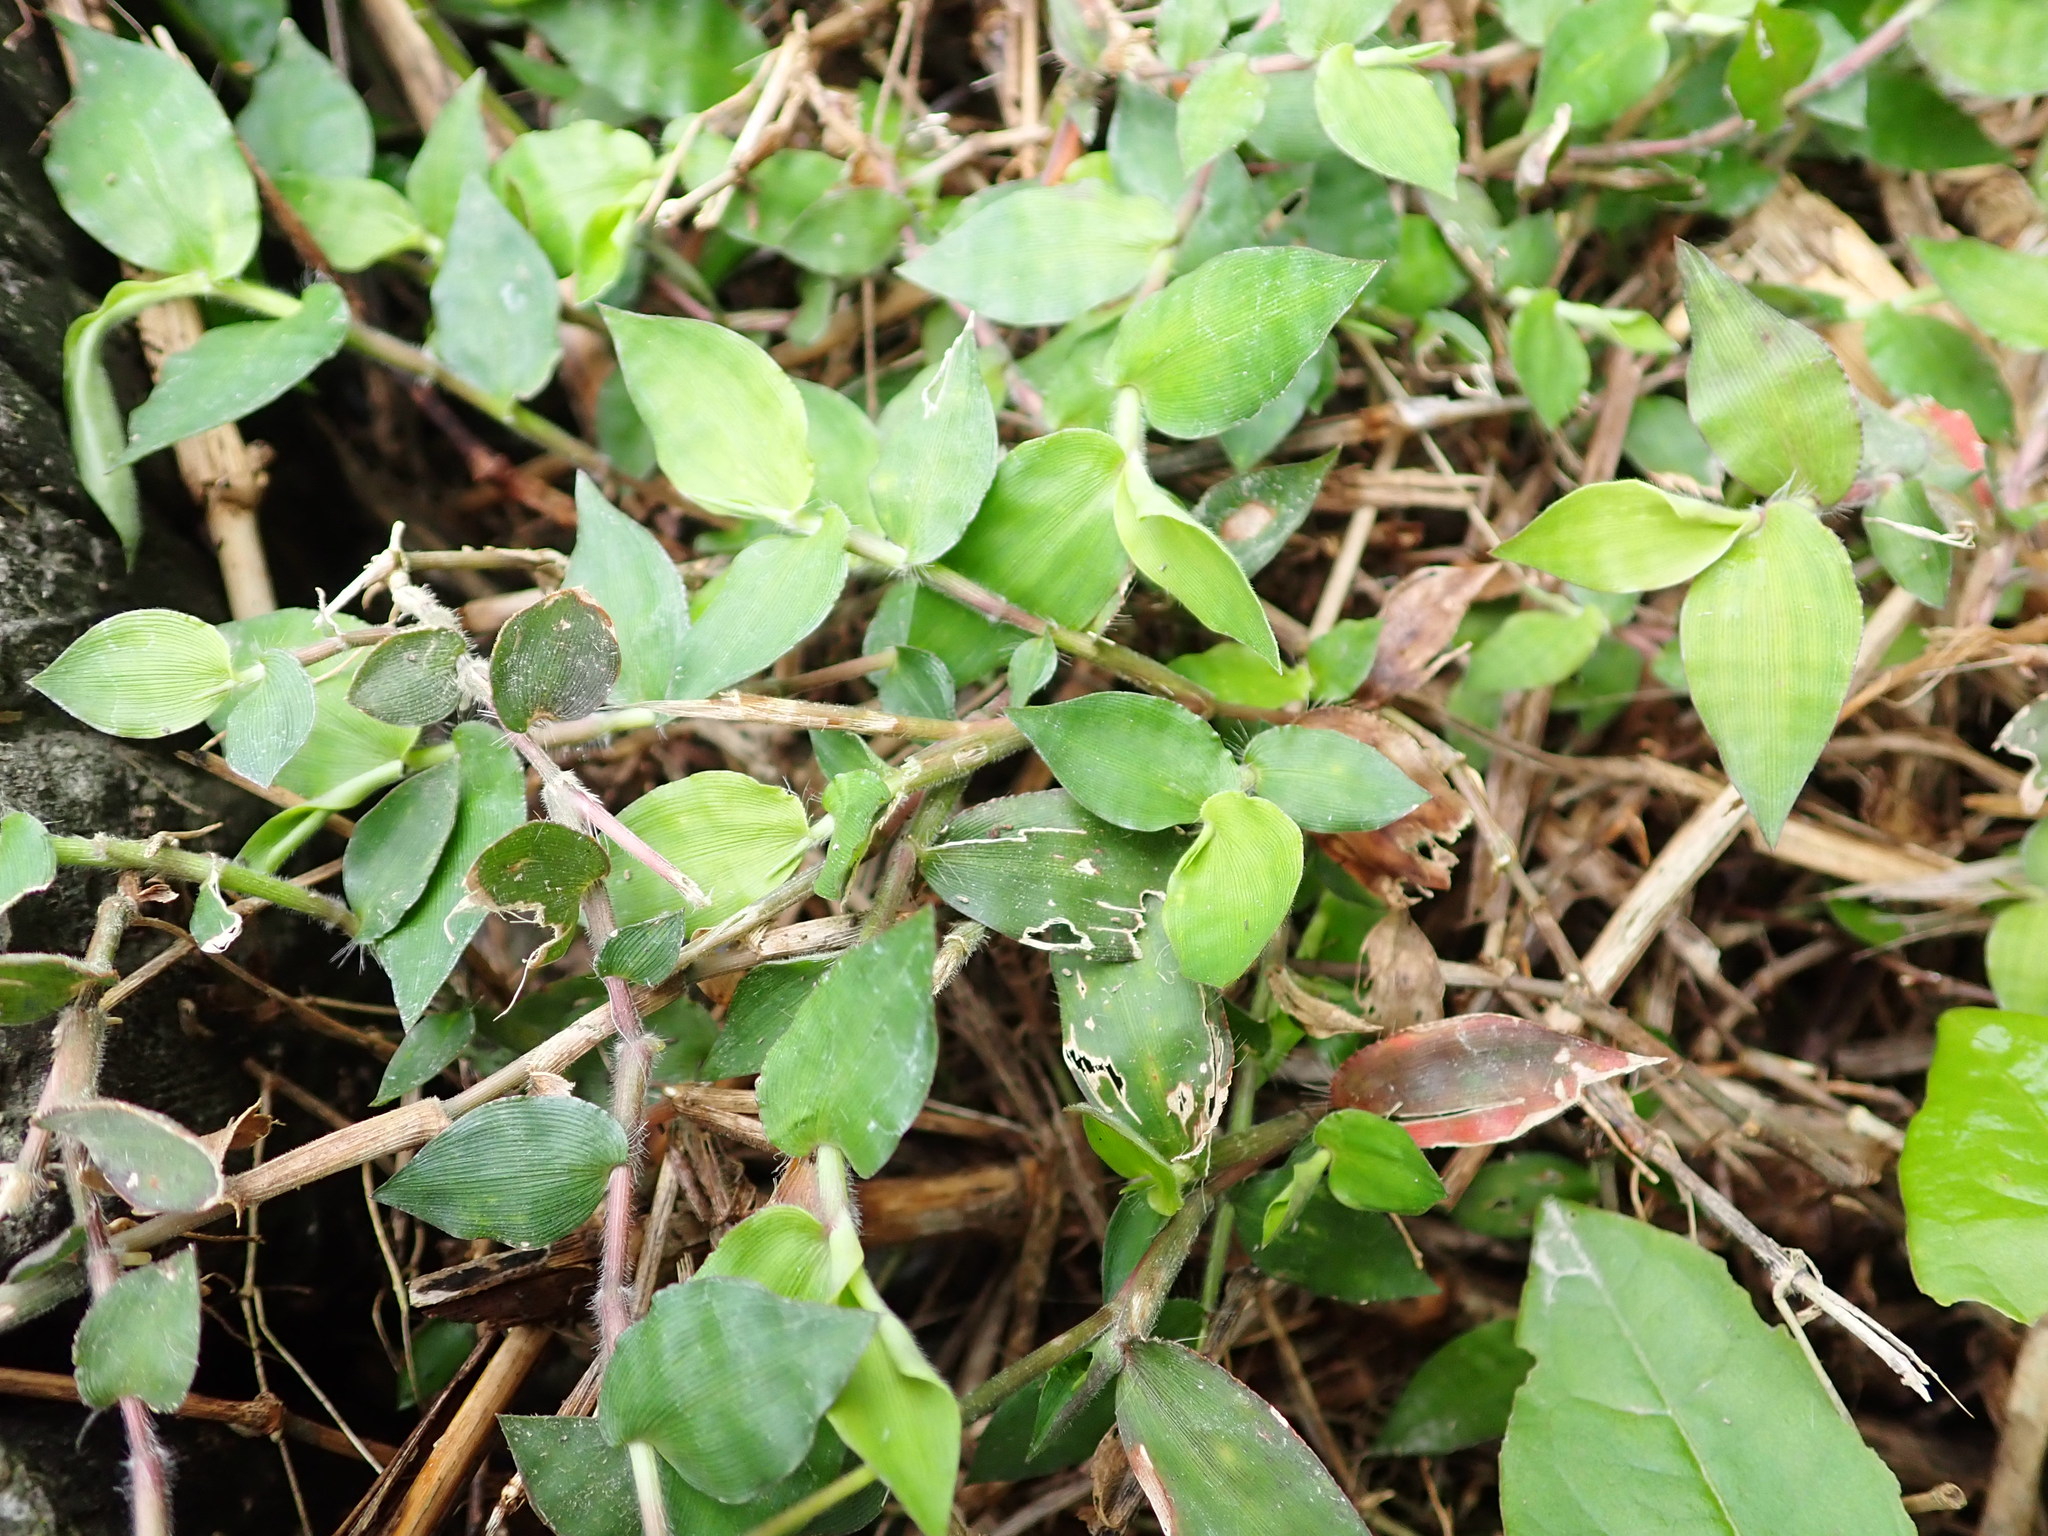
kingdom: Plantae
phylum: Tracheophyta
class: Liliopsida
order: Poales
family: Poaceae
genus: Oplismenus
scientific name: Oplismenus compositus
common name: Running mountain grass
